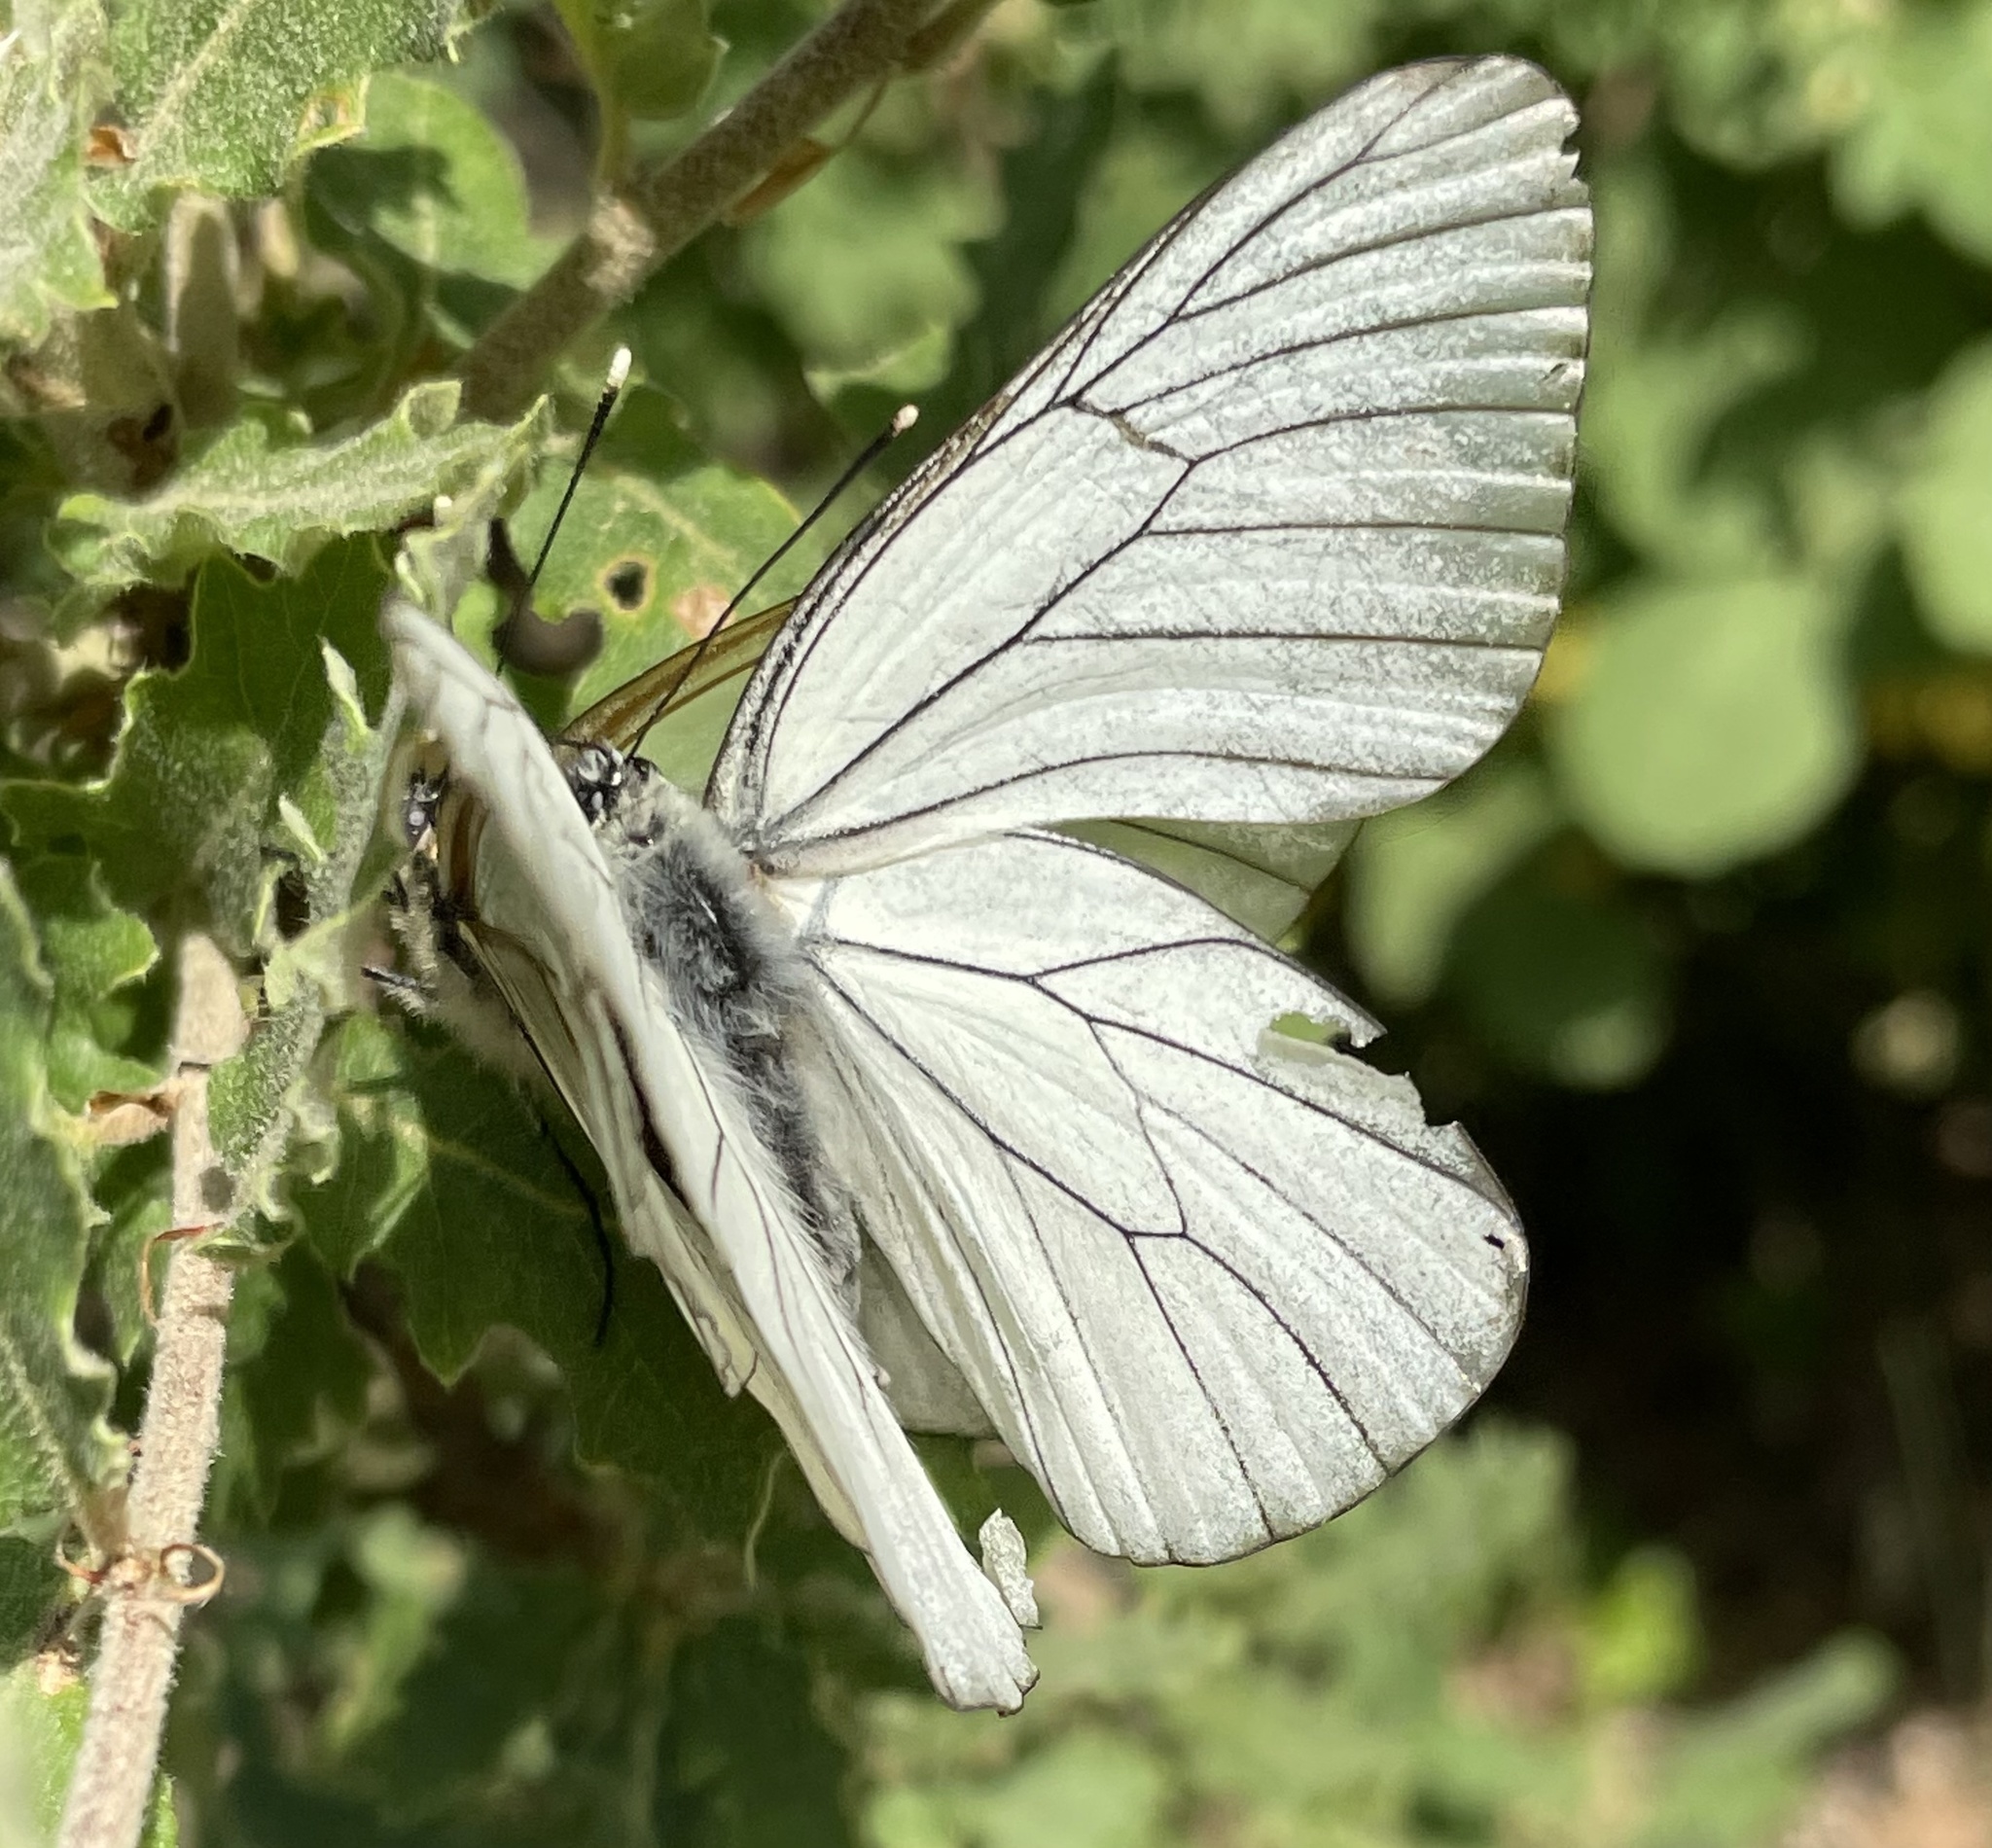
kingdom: Animalia
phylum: Arthropoda
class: Insecta
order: Lepidoptera
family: Pieridae
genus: Aporia
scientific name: Aporia crataegi
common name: Black-veined white
